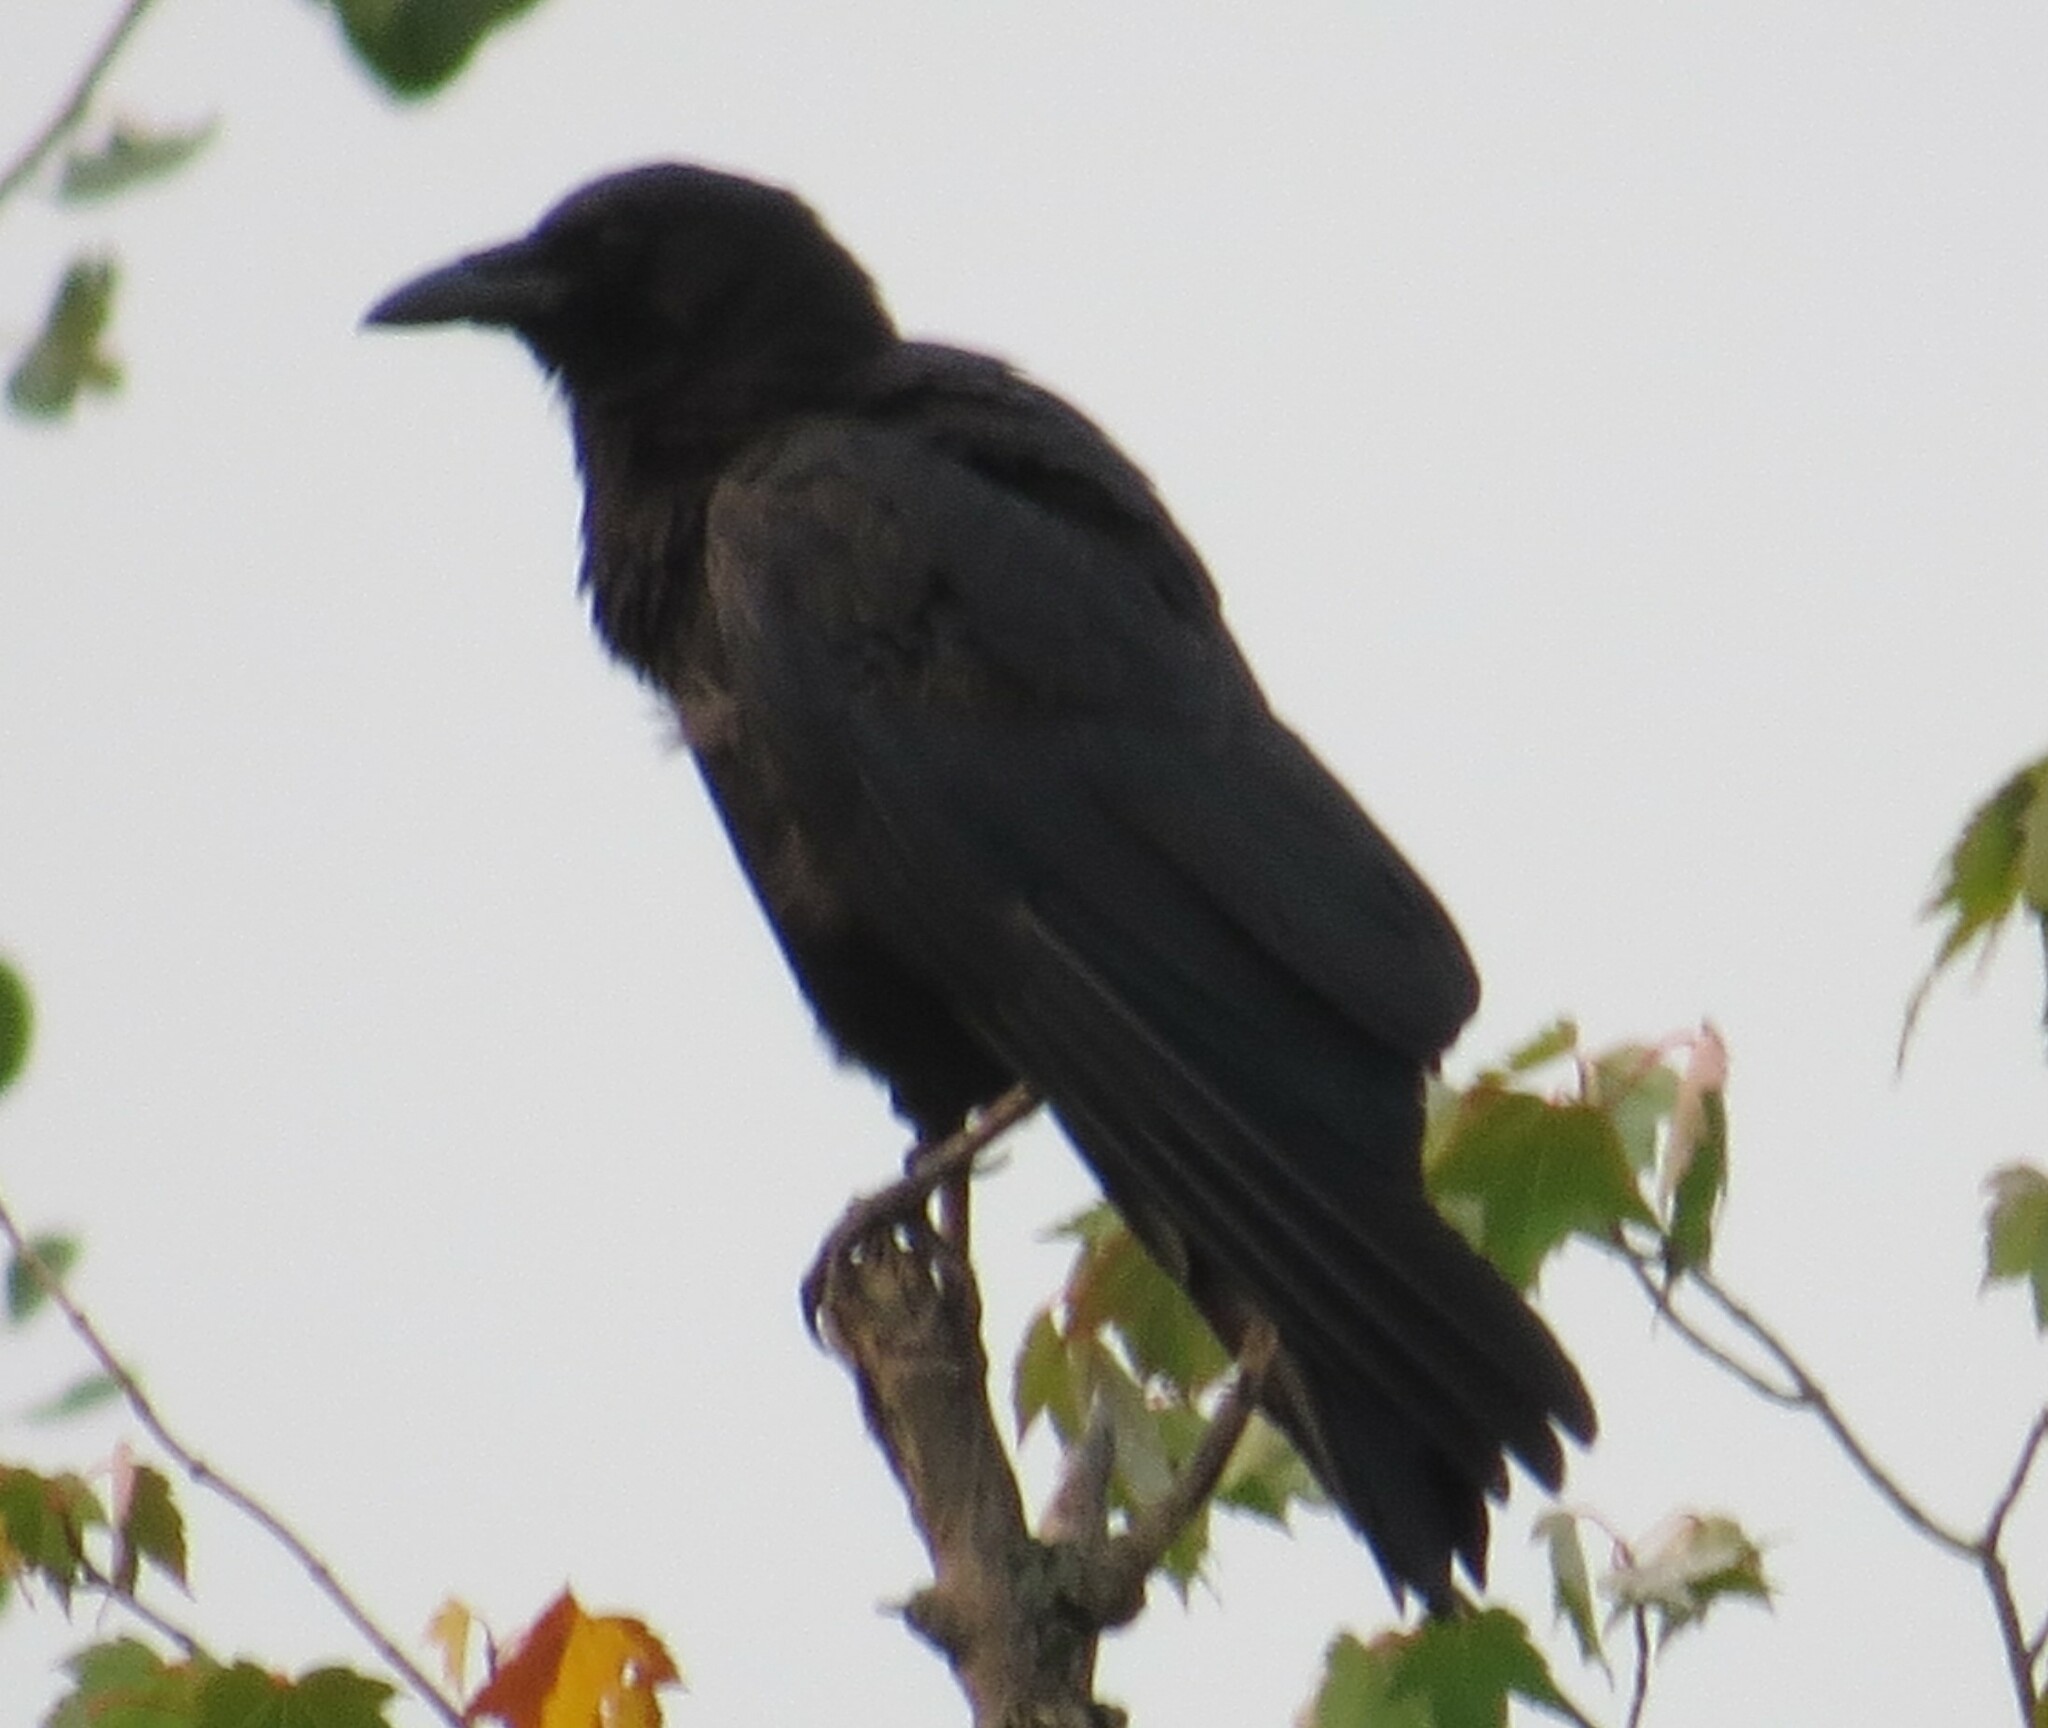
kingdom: Animalia
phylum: Chordata
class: Aves
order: Passeriformes
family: Corvidae
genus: Corvus
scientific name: Corvus brachyrhynchos
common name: American crow
